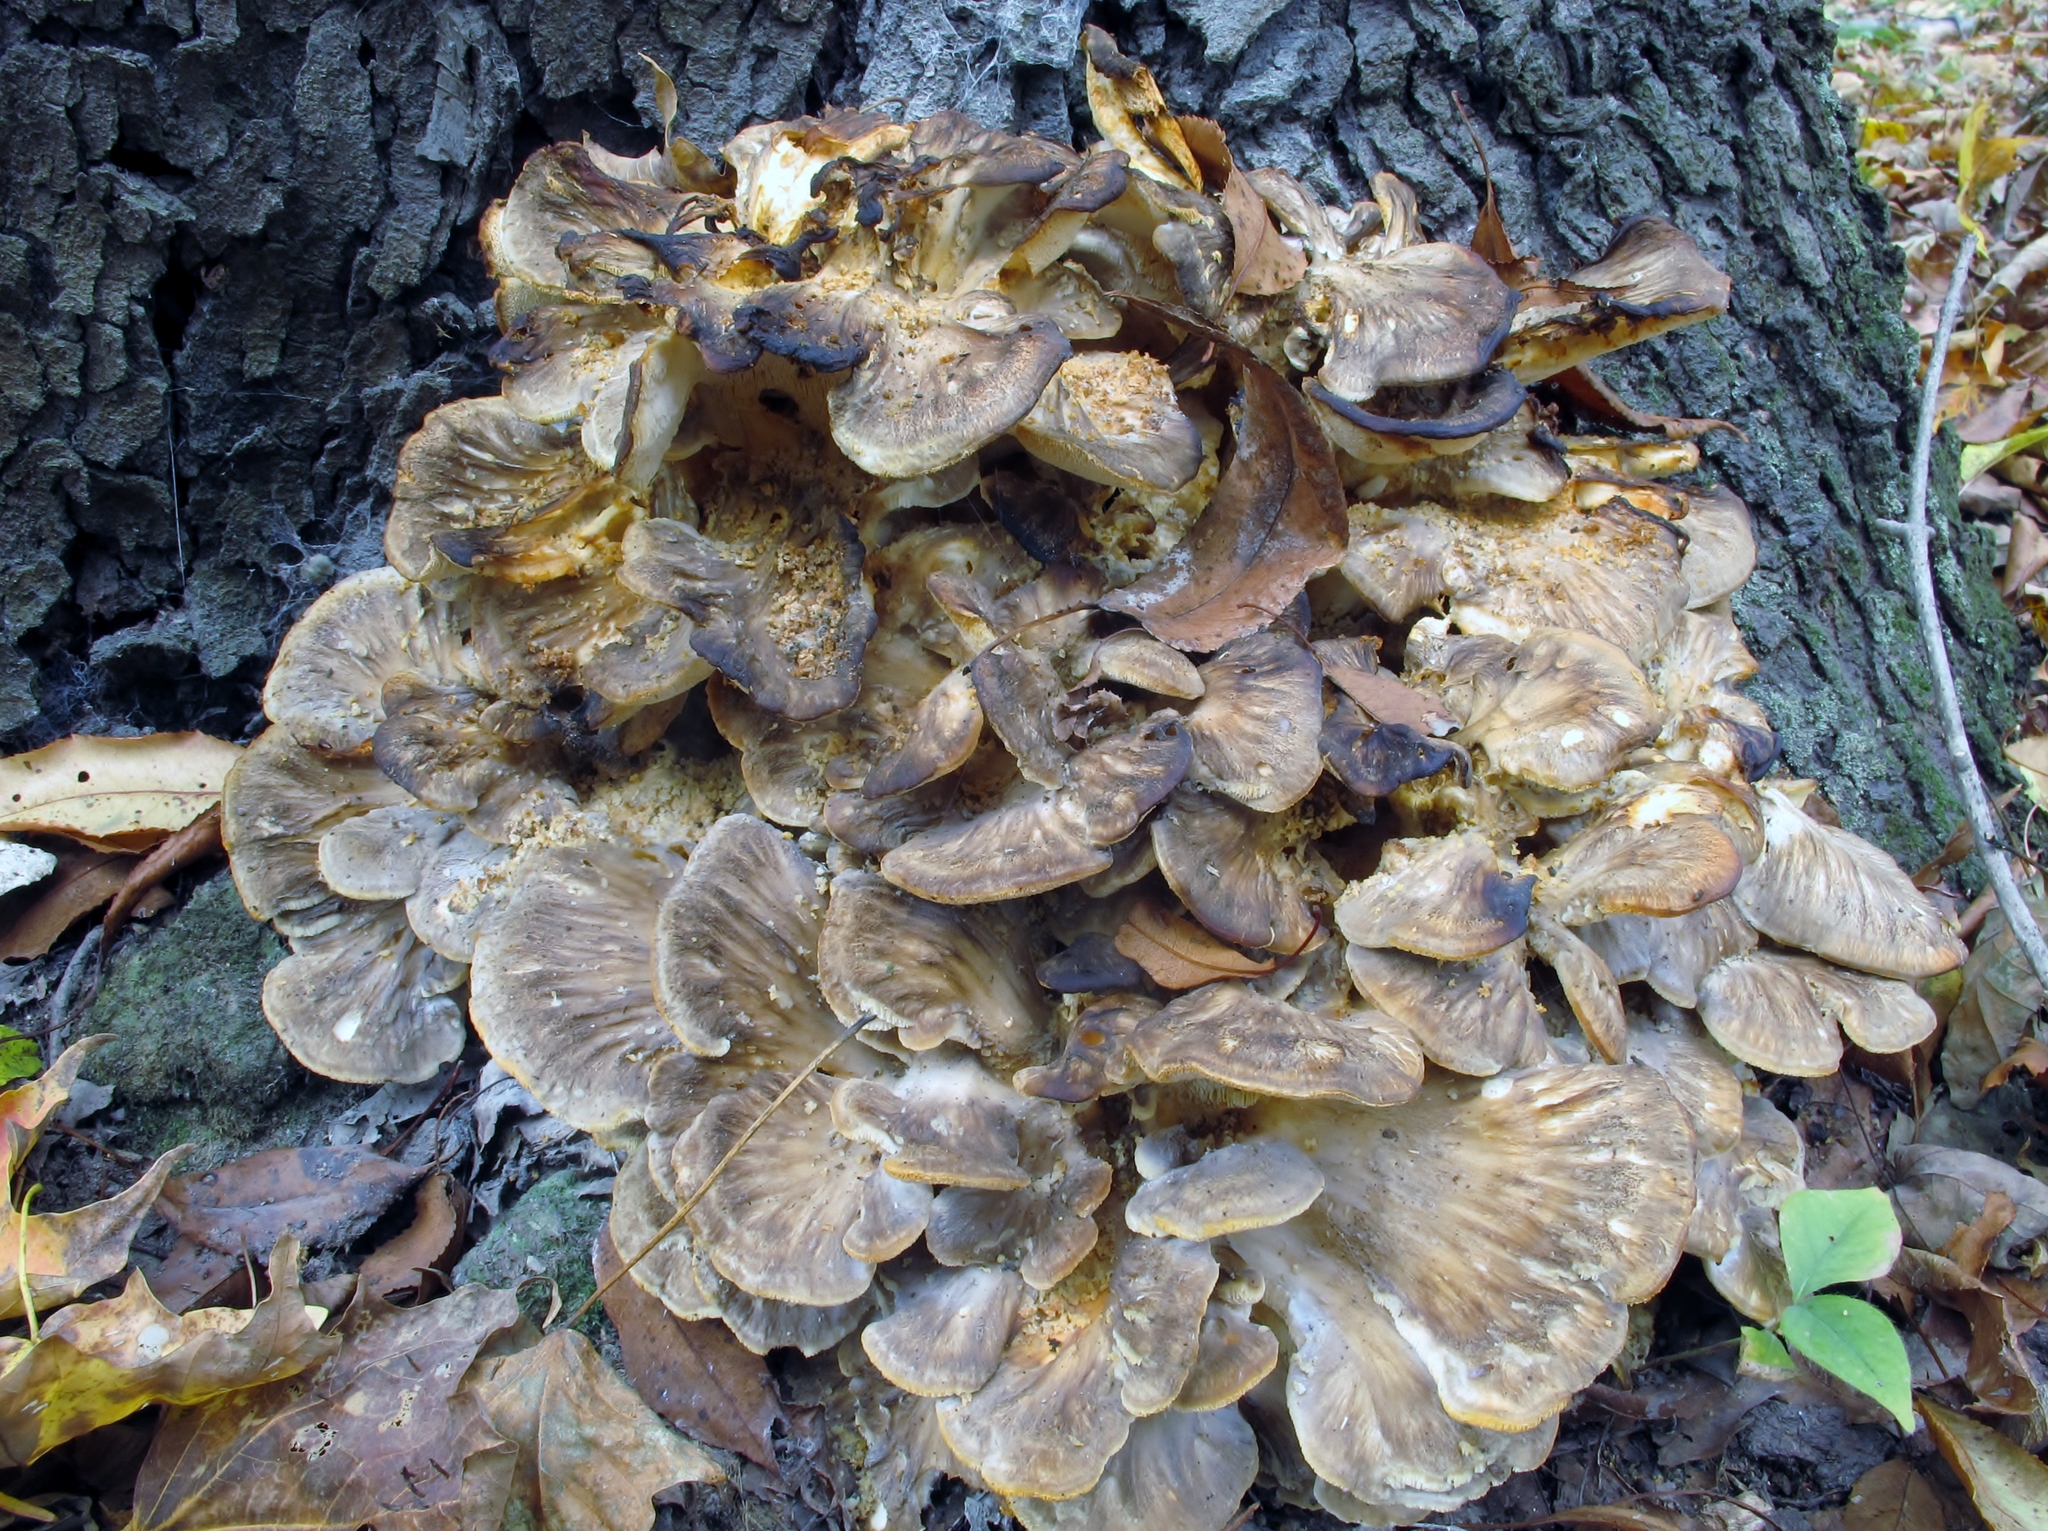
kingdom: Fungi
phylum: Basidiomycota
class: Agaricomycetes
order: Polyporales
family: Grifolaceae
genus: Grifola
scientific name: Grifola frondosa
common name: Hen of the woods
